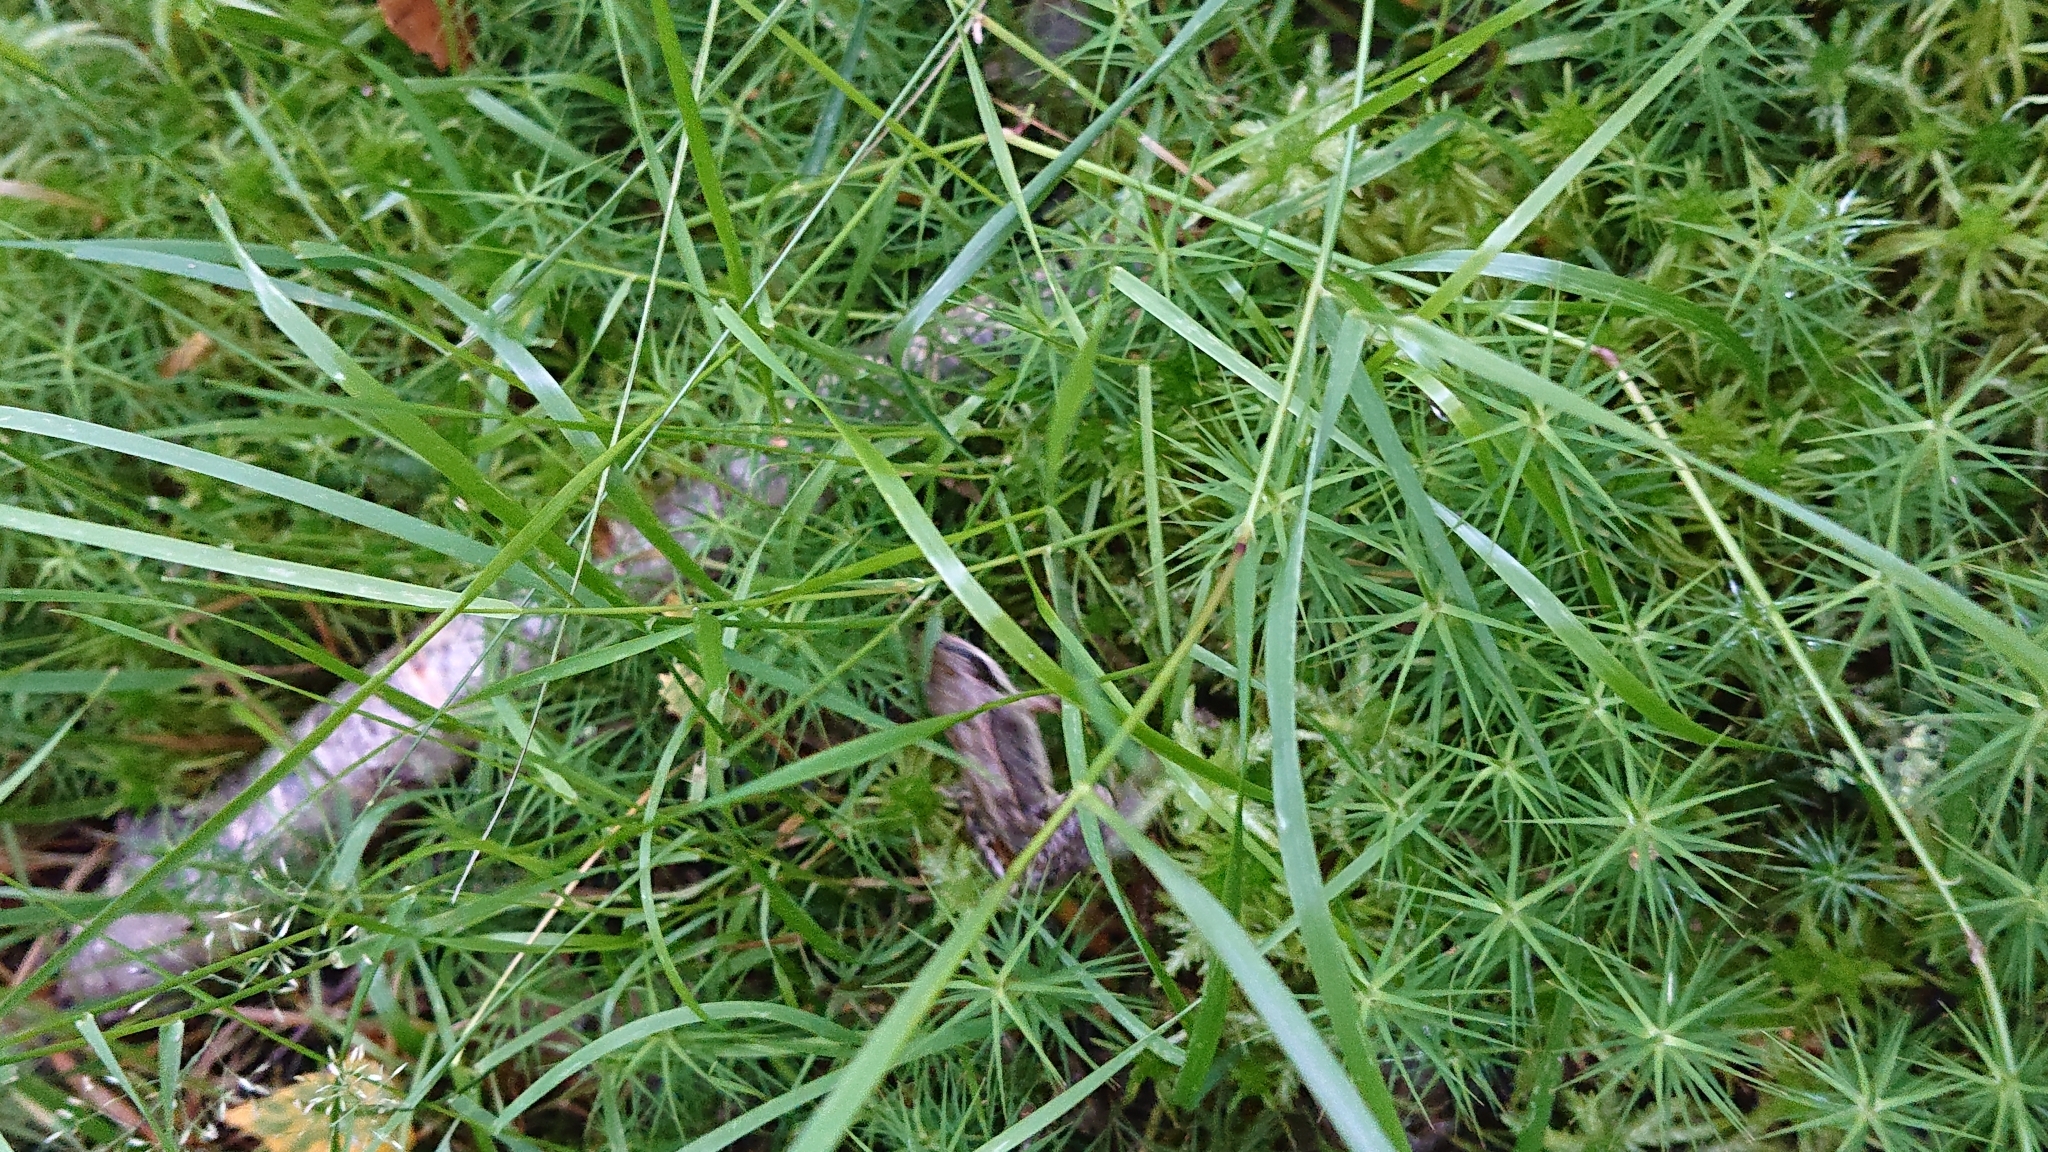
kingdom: Animalia
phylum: Chordata
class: Amphibia
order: Anura
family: Ranidae
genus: Rana
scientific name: Rana temporaria
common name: Common frog
